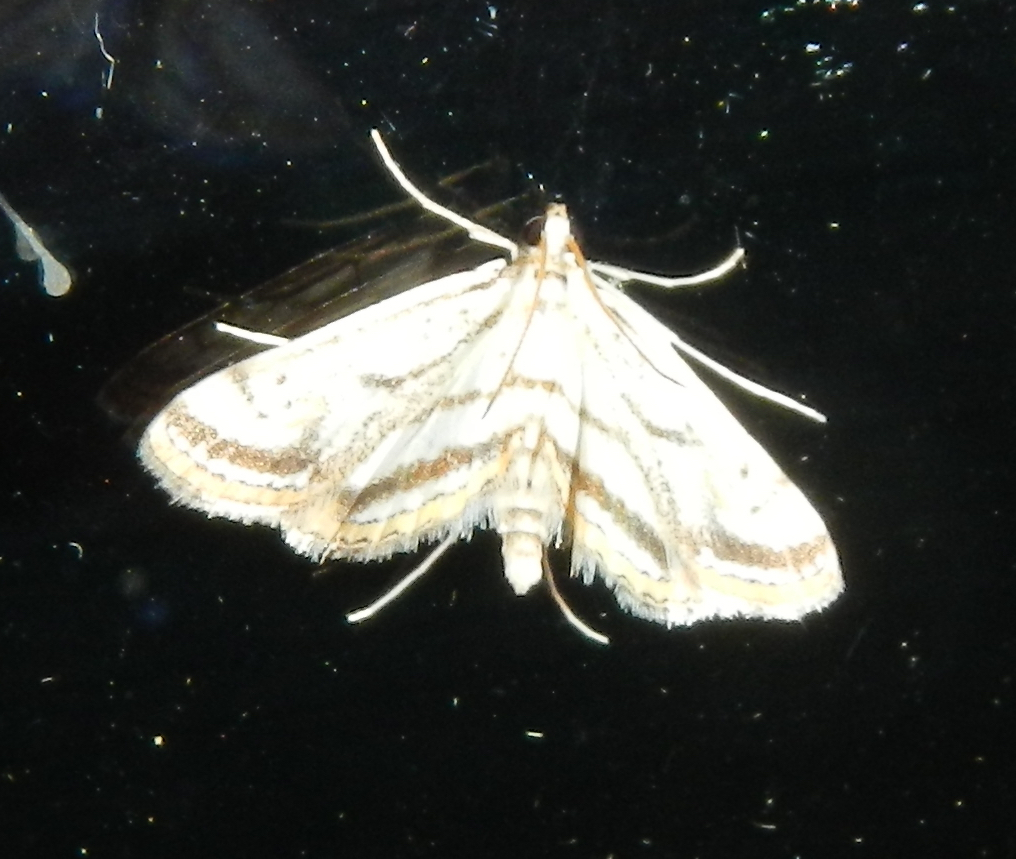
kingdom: Animalia
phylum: Arthropoda
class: Insecta
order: Lepidoptera
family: Crambidae
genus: Parapoynx
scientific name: Parapoynx badiusalis
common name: Chestnut-marked pondweed moth
